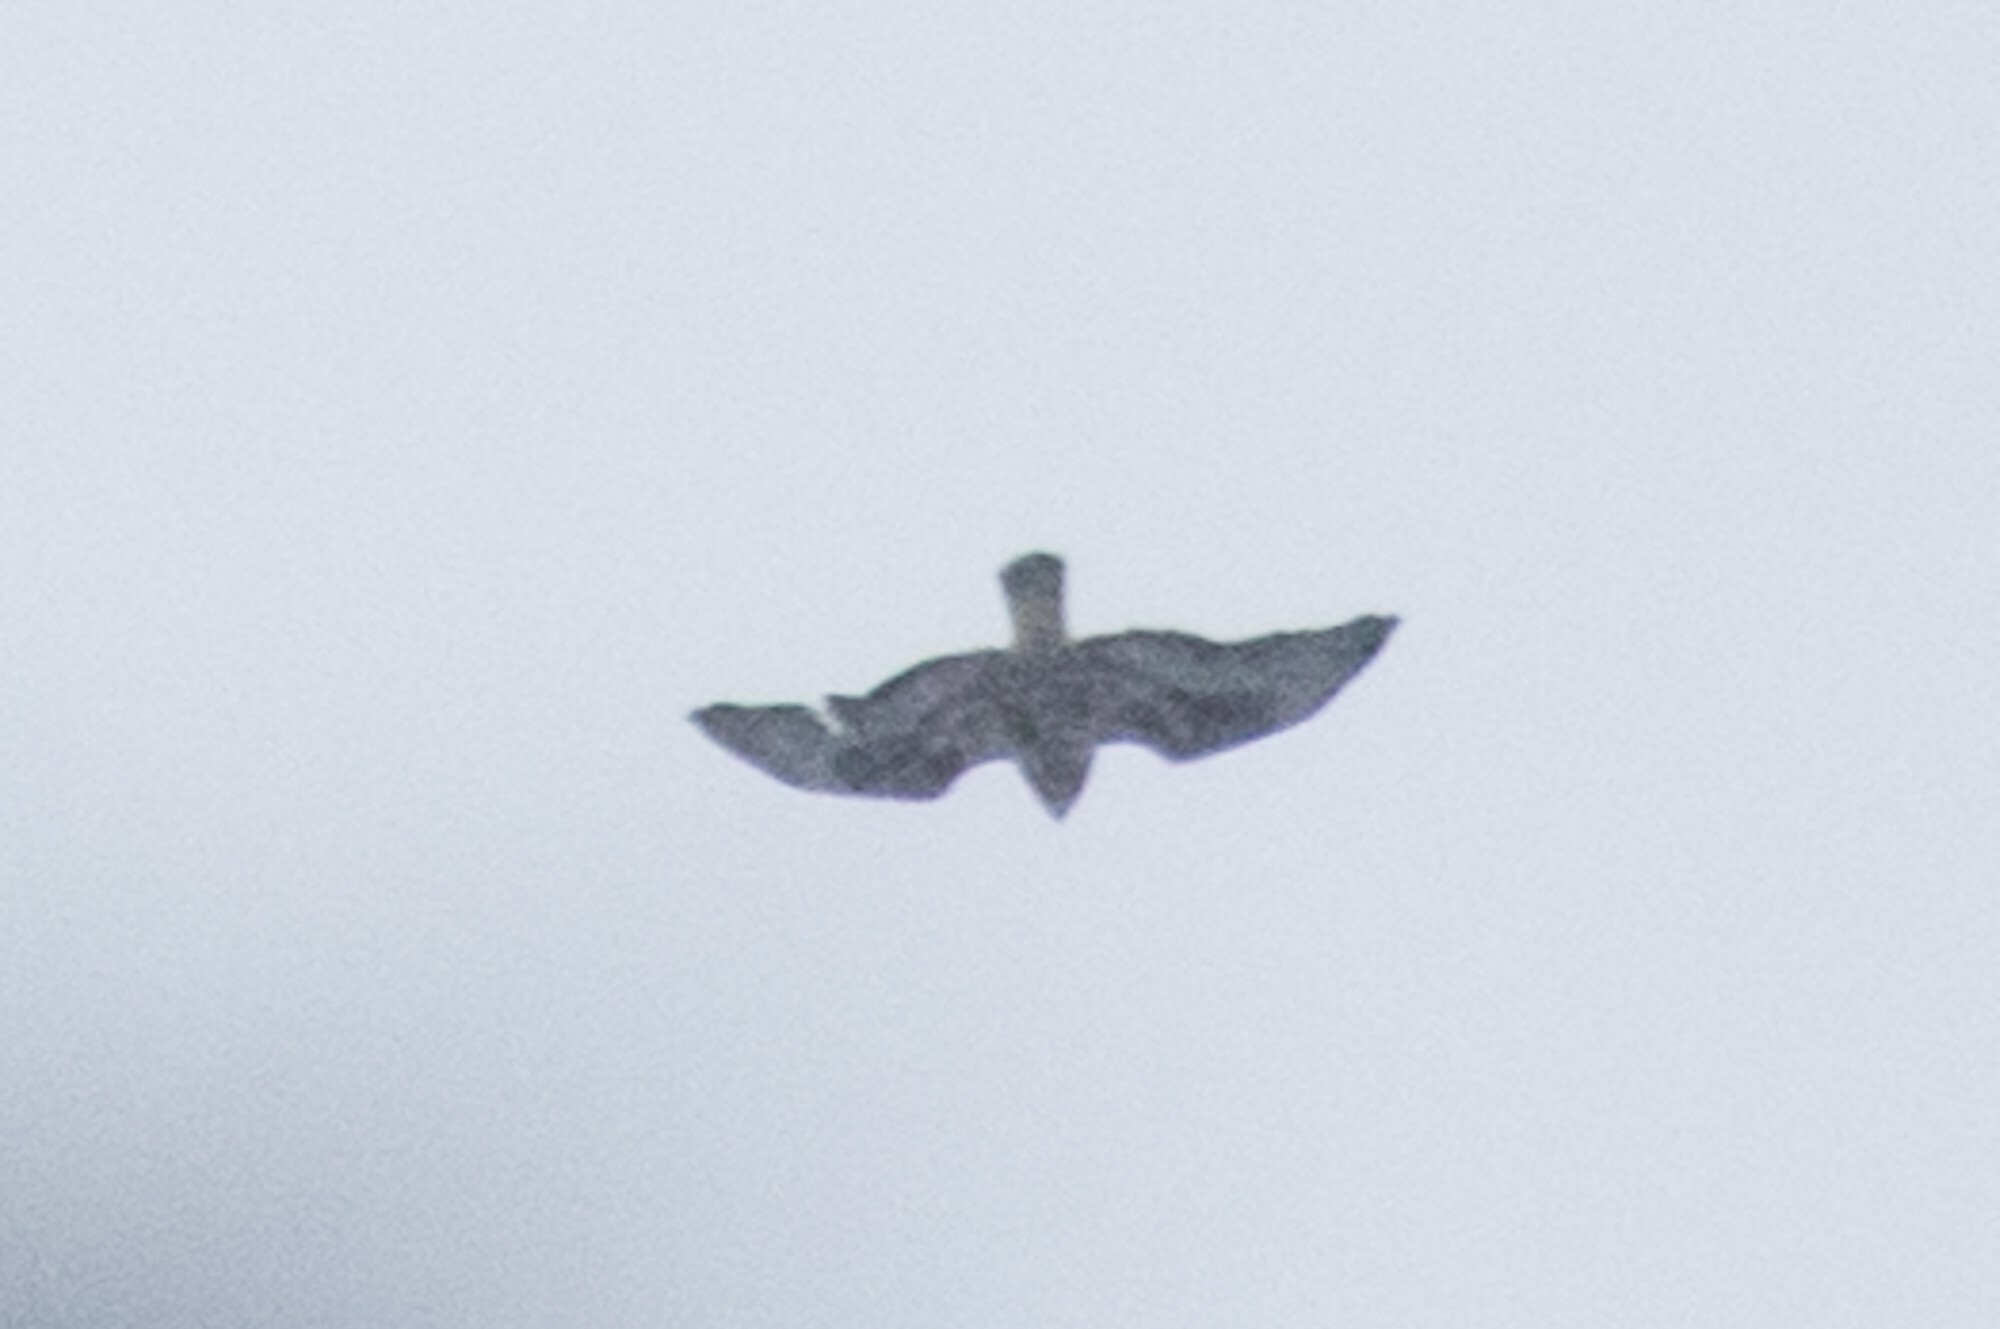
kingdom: Animalia
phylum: Chordata
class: Aves
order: Accipitriformes
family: Accipitridae
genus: Buteo
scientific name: Buteo lagopus
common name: Rough-legged buzzard
